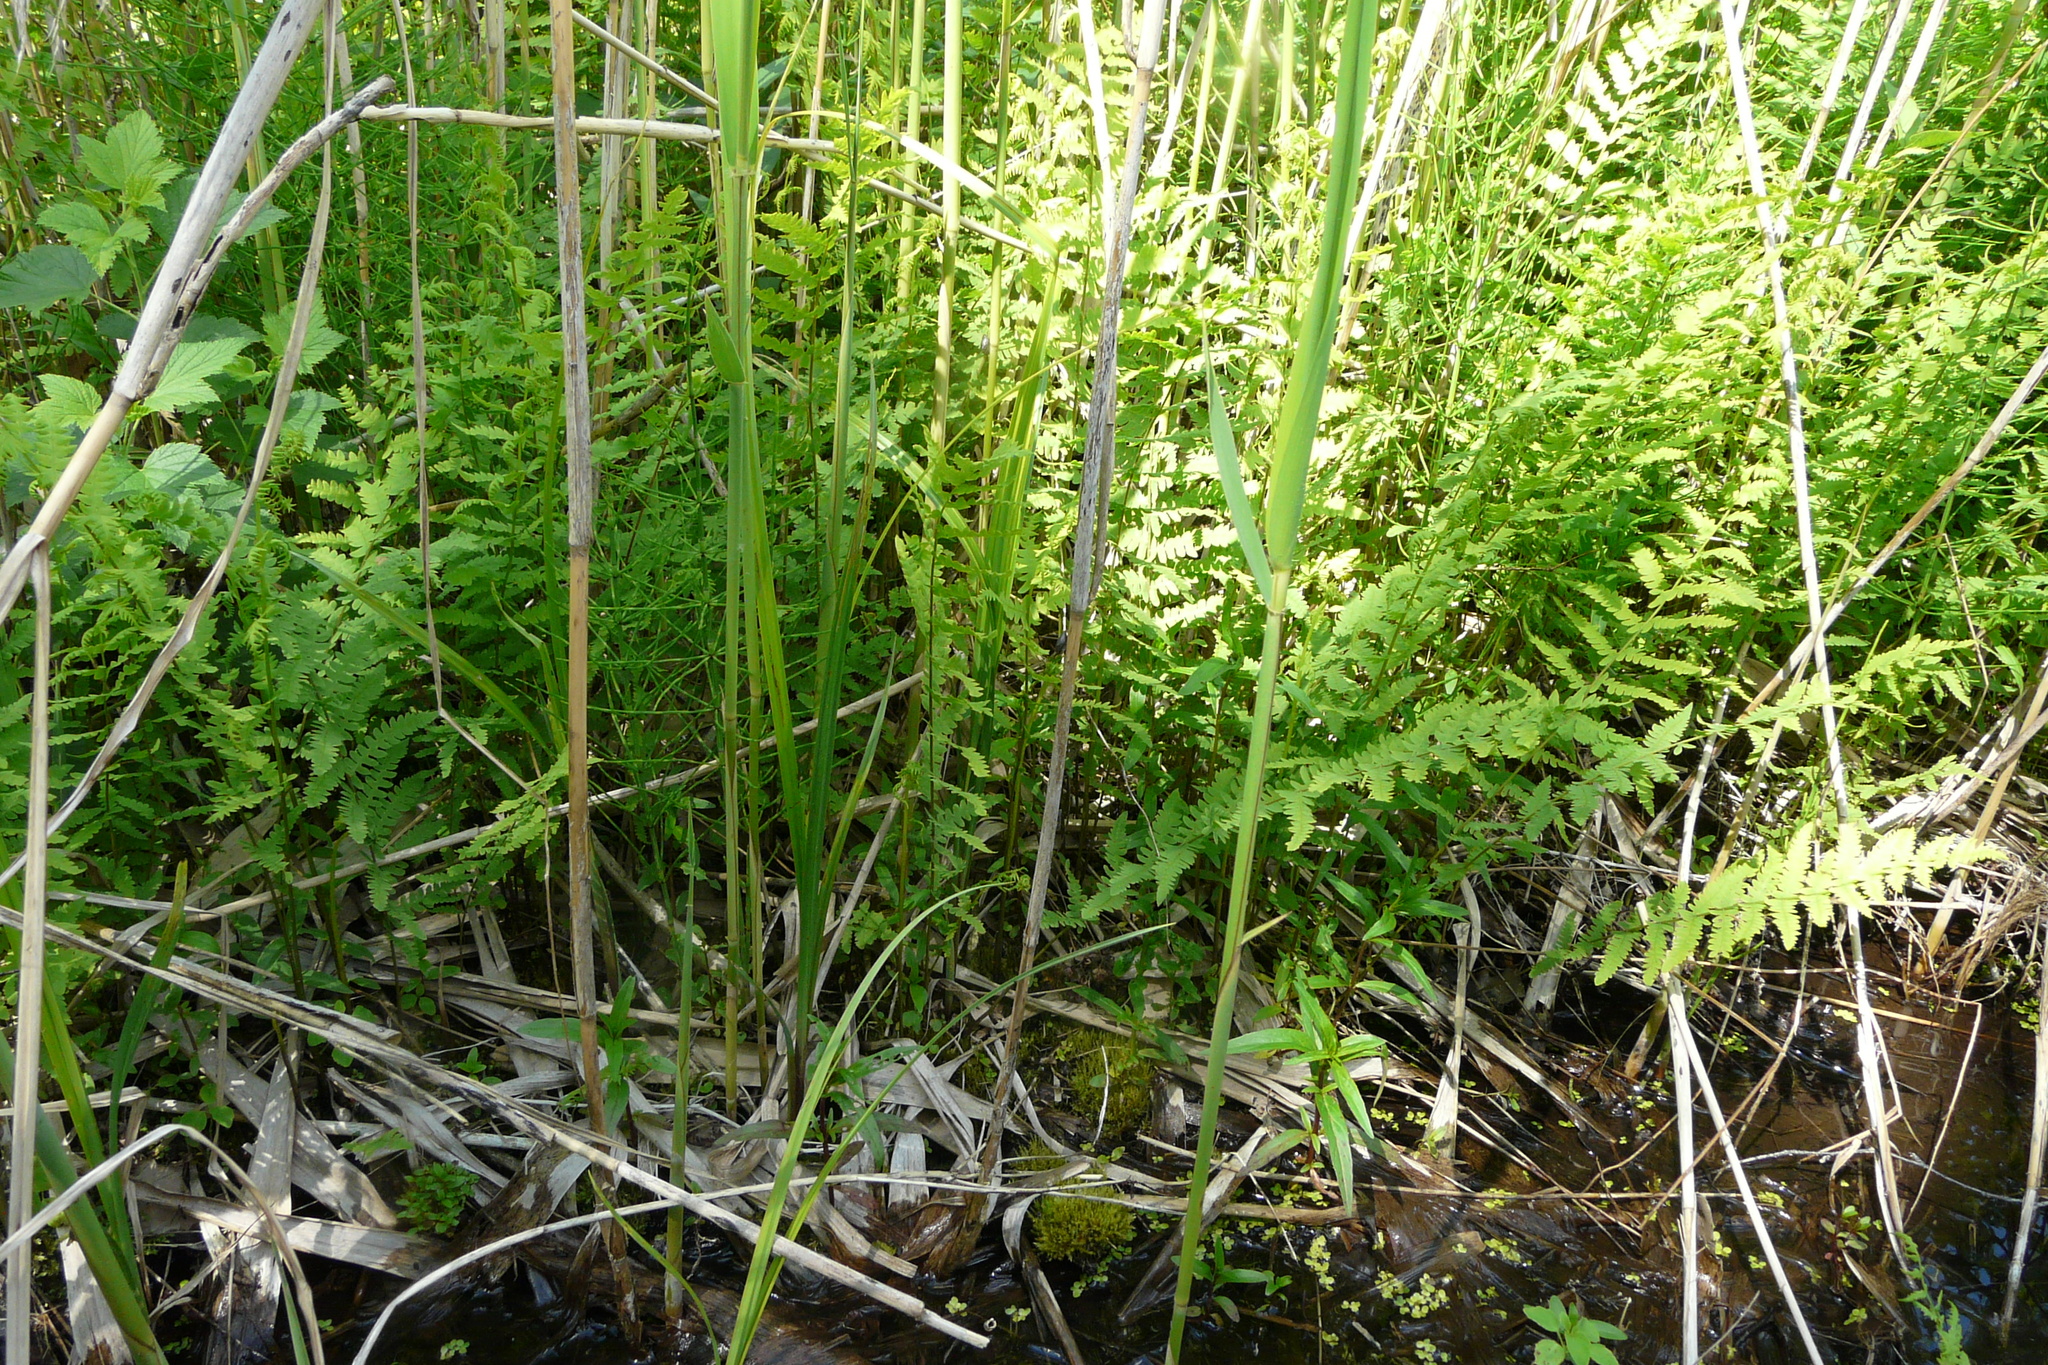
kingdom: Plantae
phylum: Tracheophyta
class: Polypodiopsida
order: Polypodiales
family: Thelypteridaceae
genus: Thelypteris
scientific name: Thelypteris palustris
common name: Marsh fern
